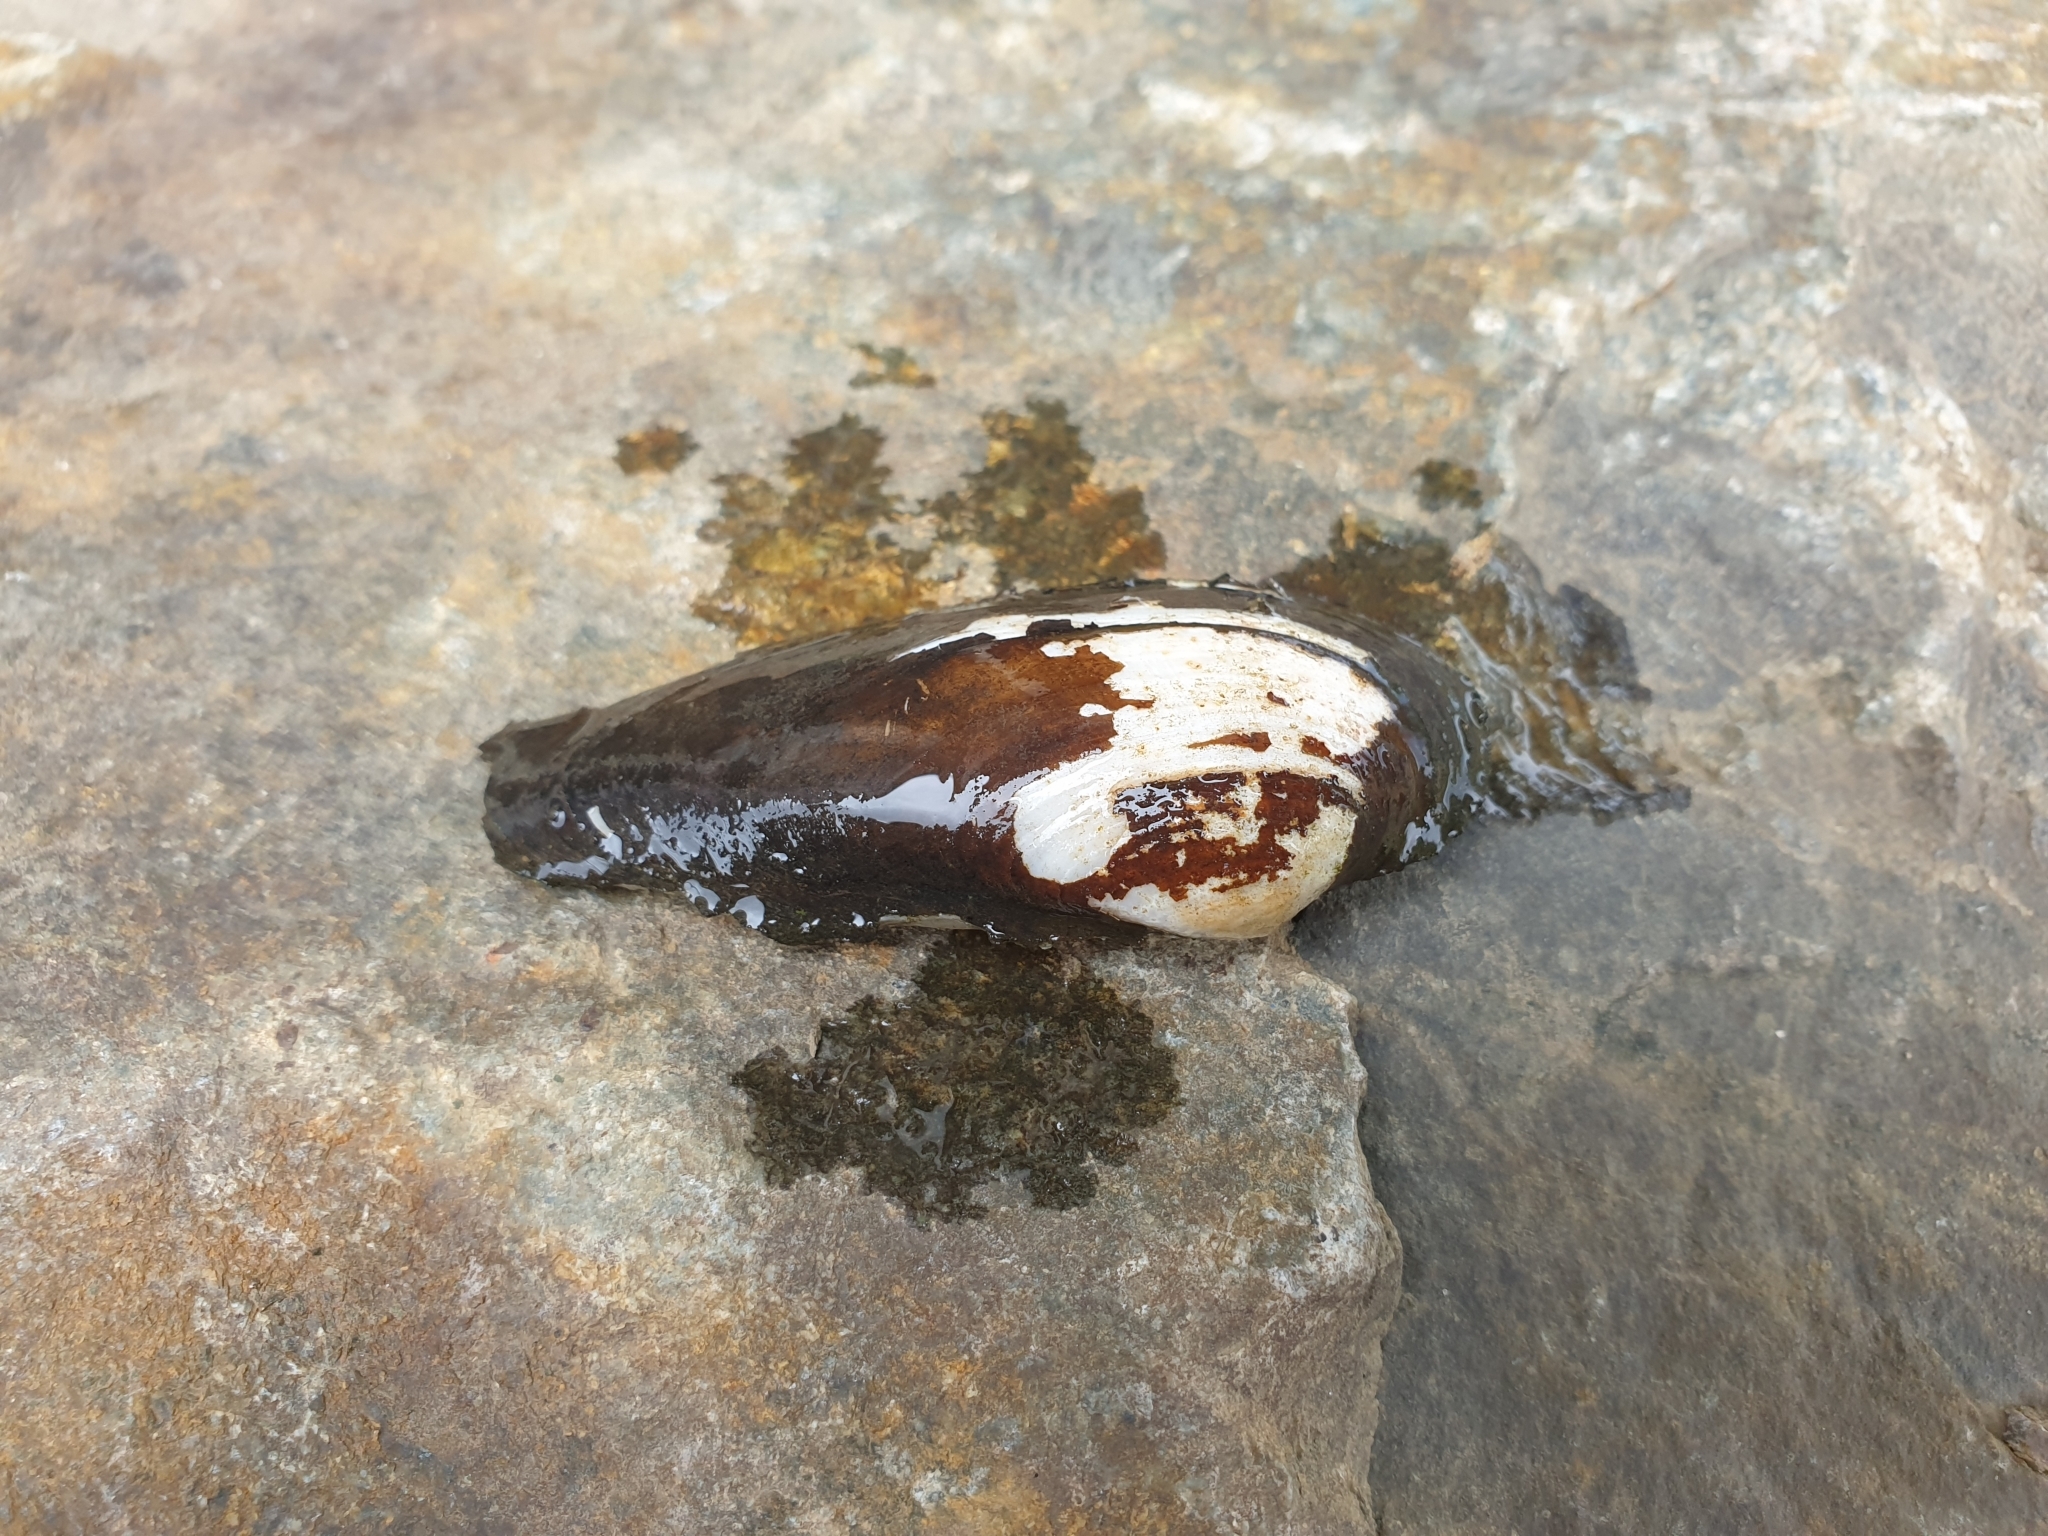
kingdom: Animalia
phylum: Mollusca
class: Bivalvia
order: Unionida
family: Unionidae
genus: Unio
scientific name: Unio pictorum
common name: Painter's mussel
